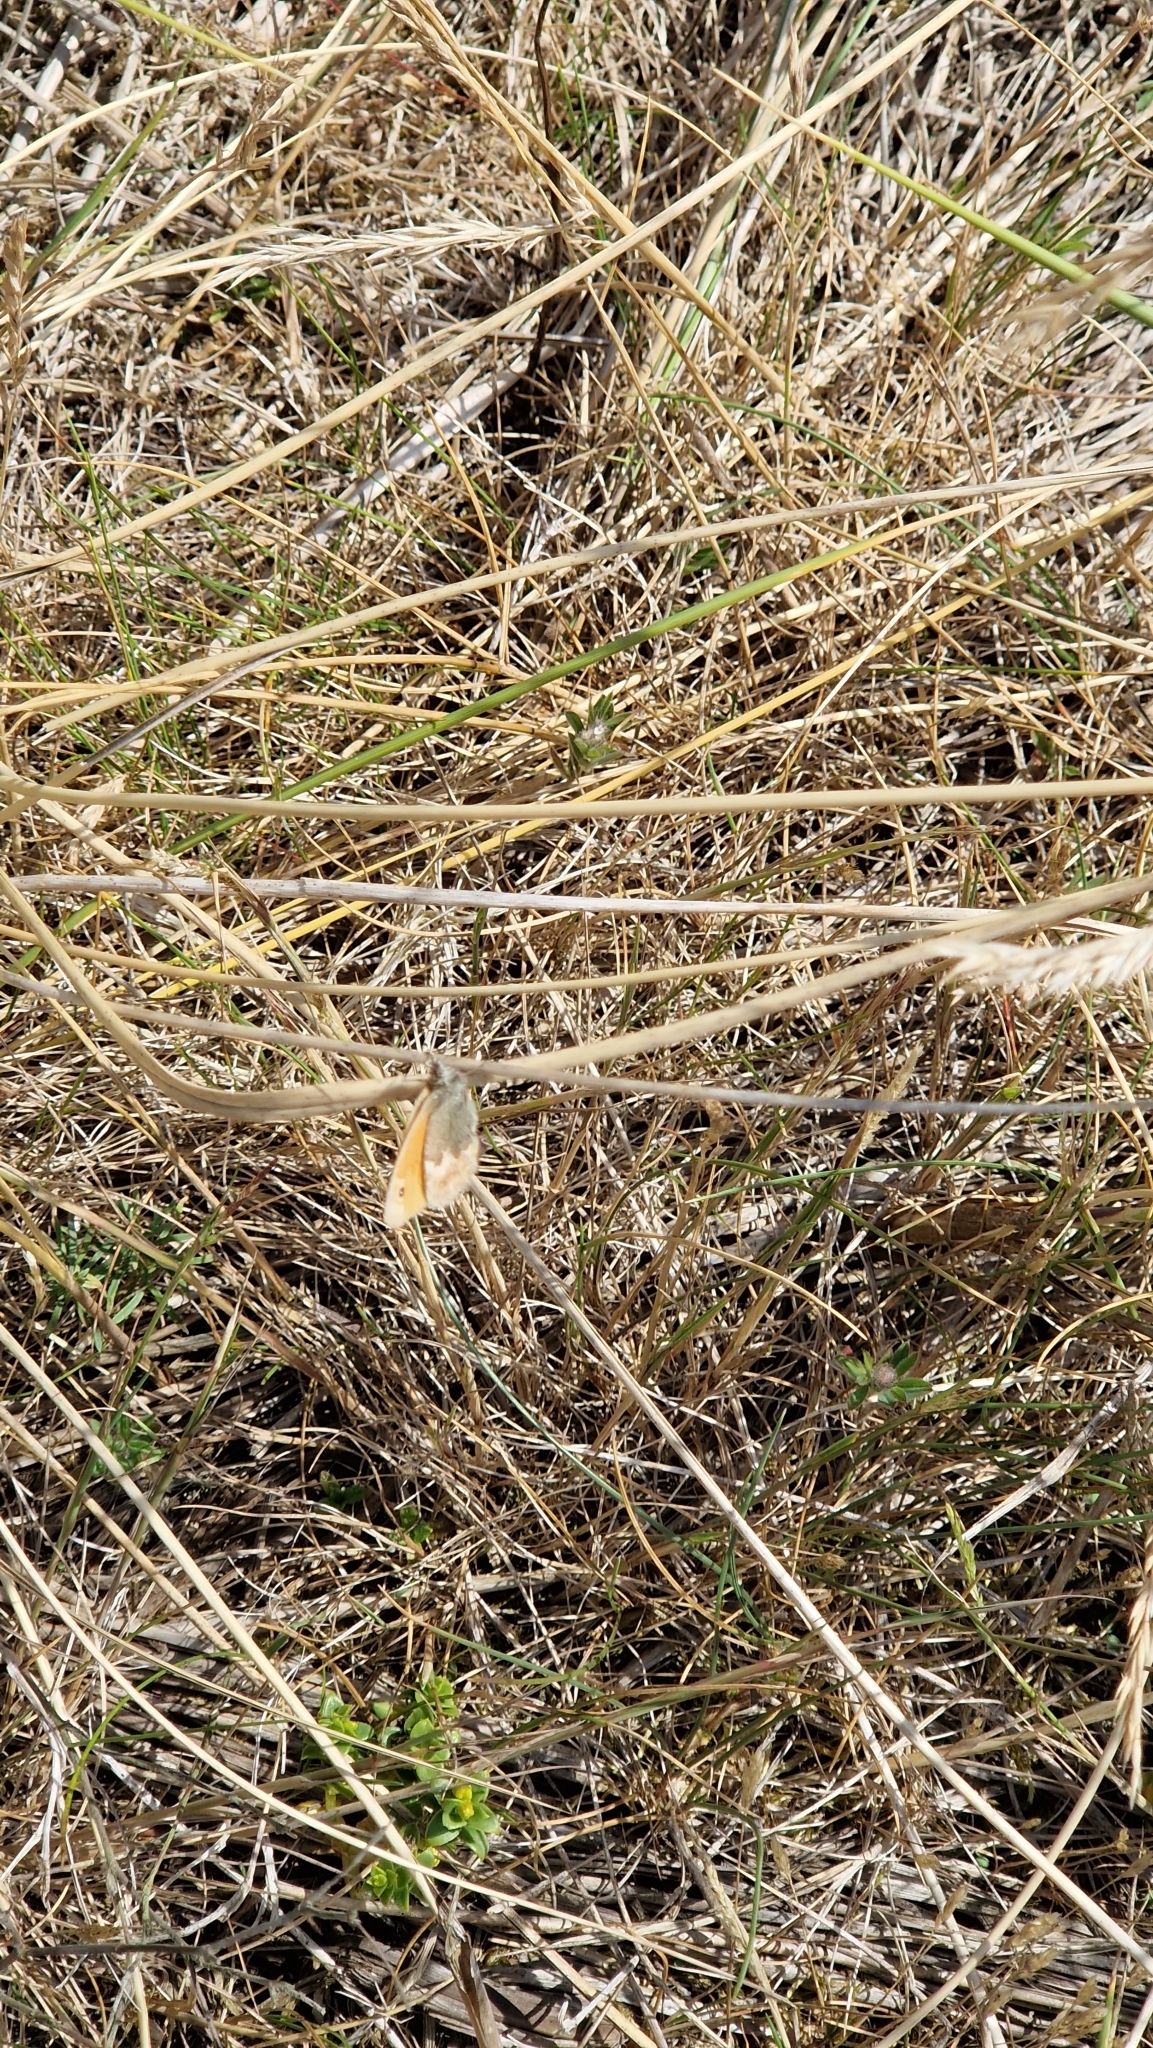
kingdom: Animalia
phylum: Arthropoda
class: Insecta
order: Lepidoptera
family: Nymphalidae
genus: Coenonympha
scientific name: Coenonympha pamphilus
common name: Small heath
